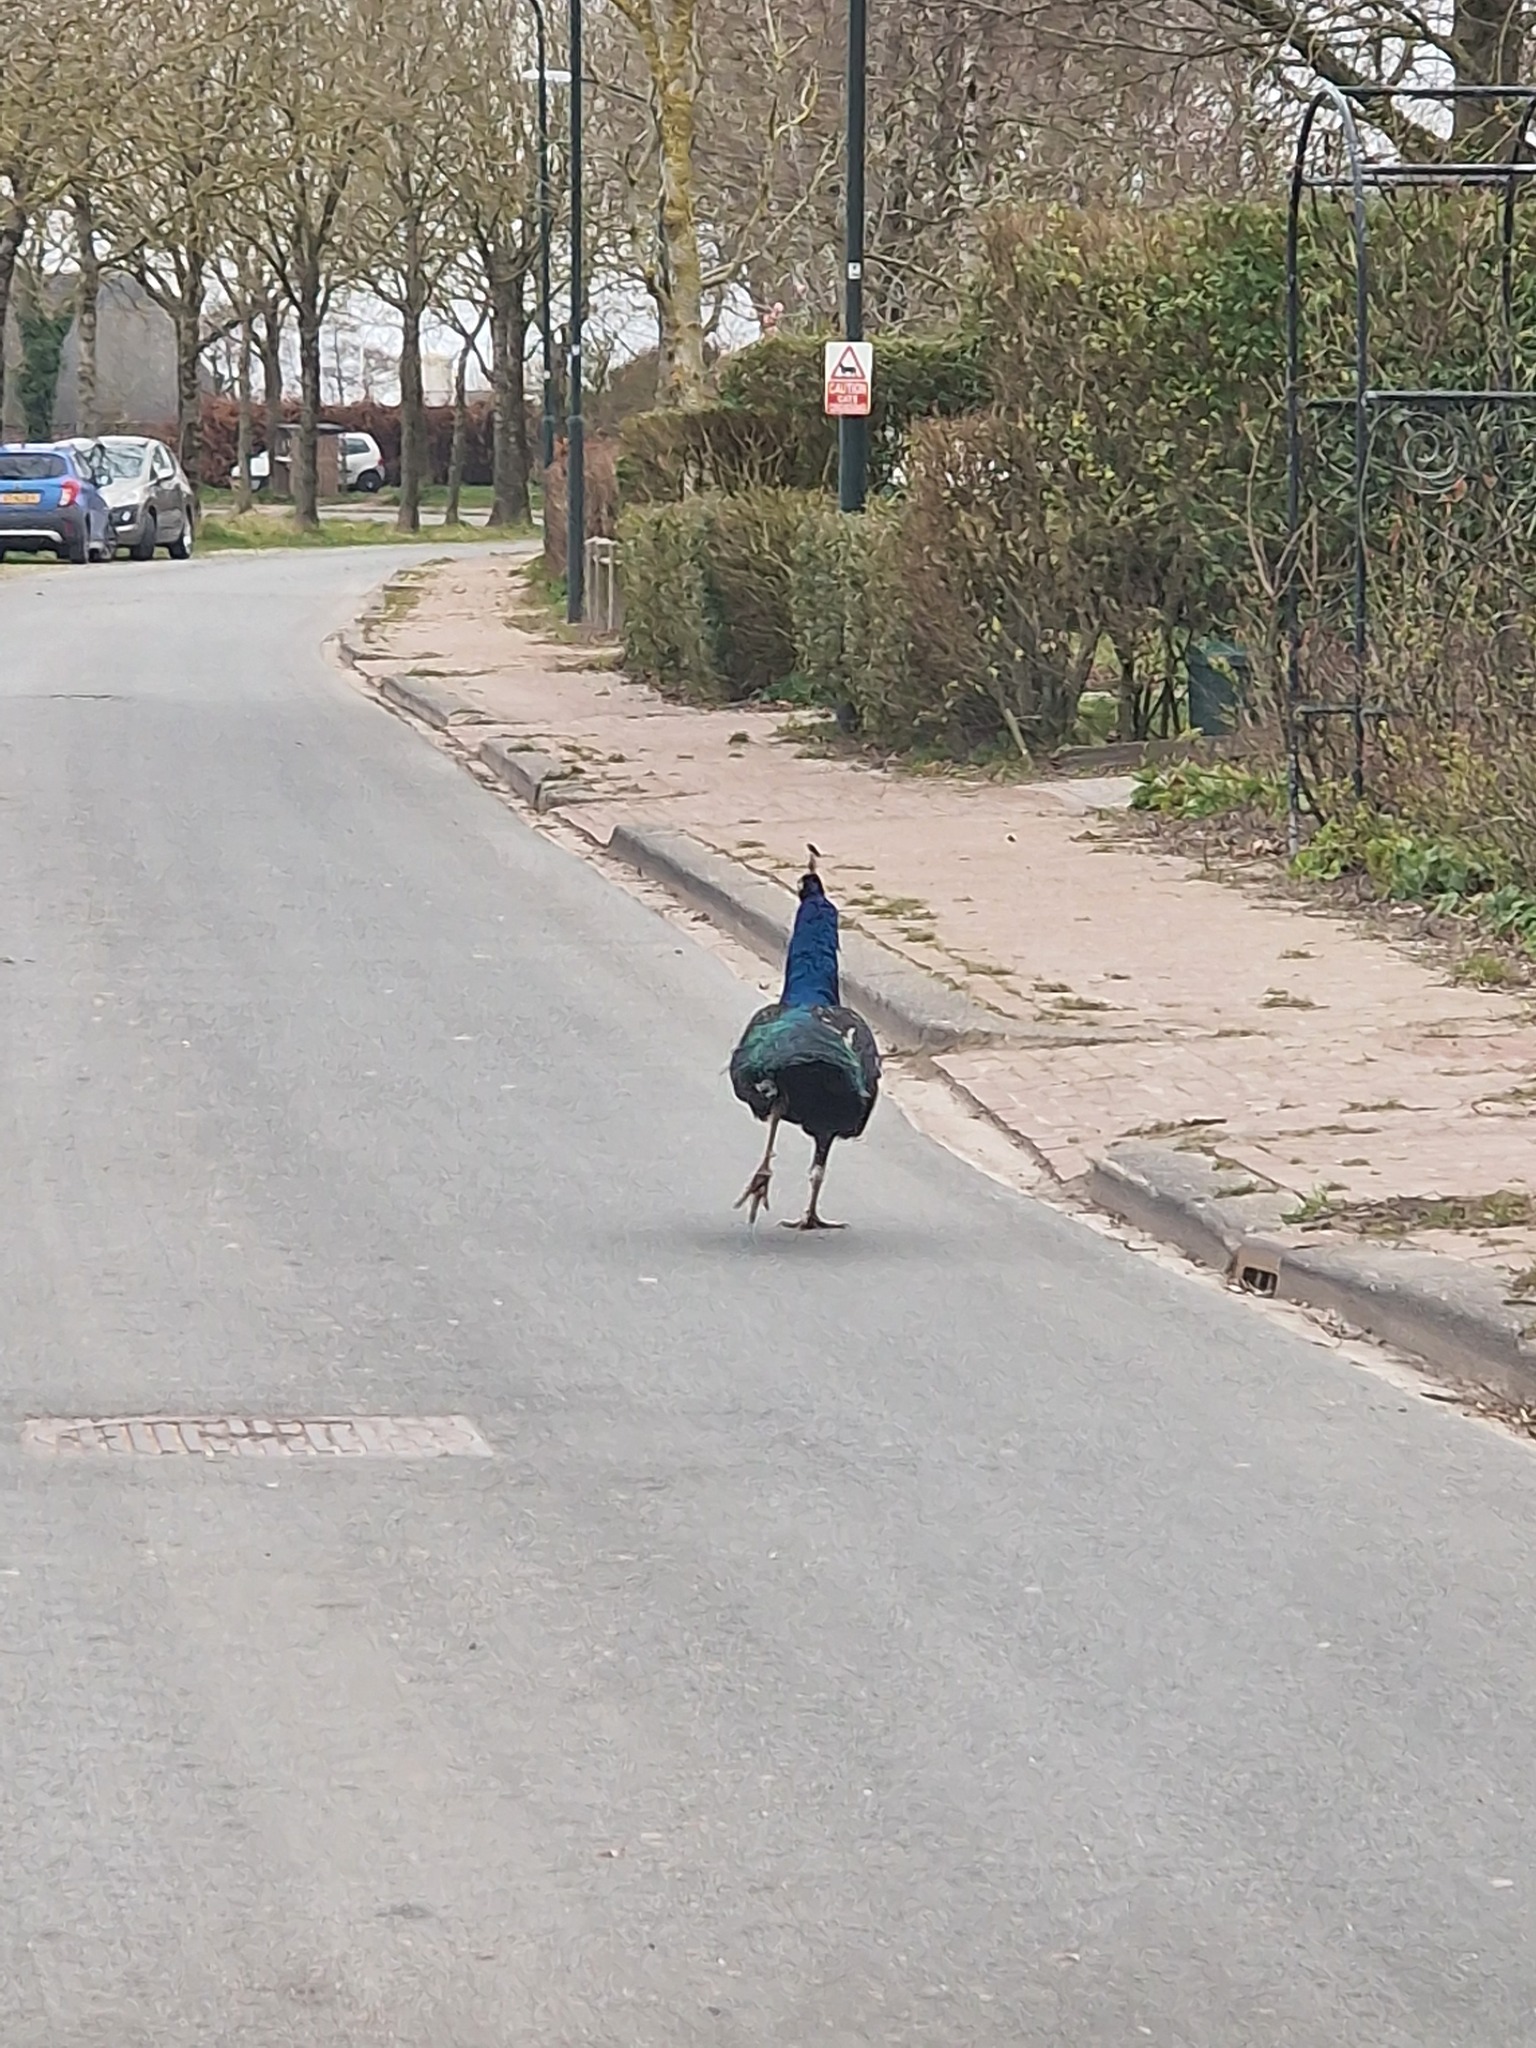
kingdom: Animalia
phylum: Chordata
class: Aves
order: Galliformes
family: Phasianidae
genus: Pavo
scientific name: Pavo cristatus
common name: Indian peafowl
